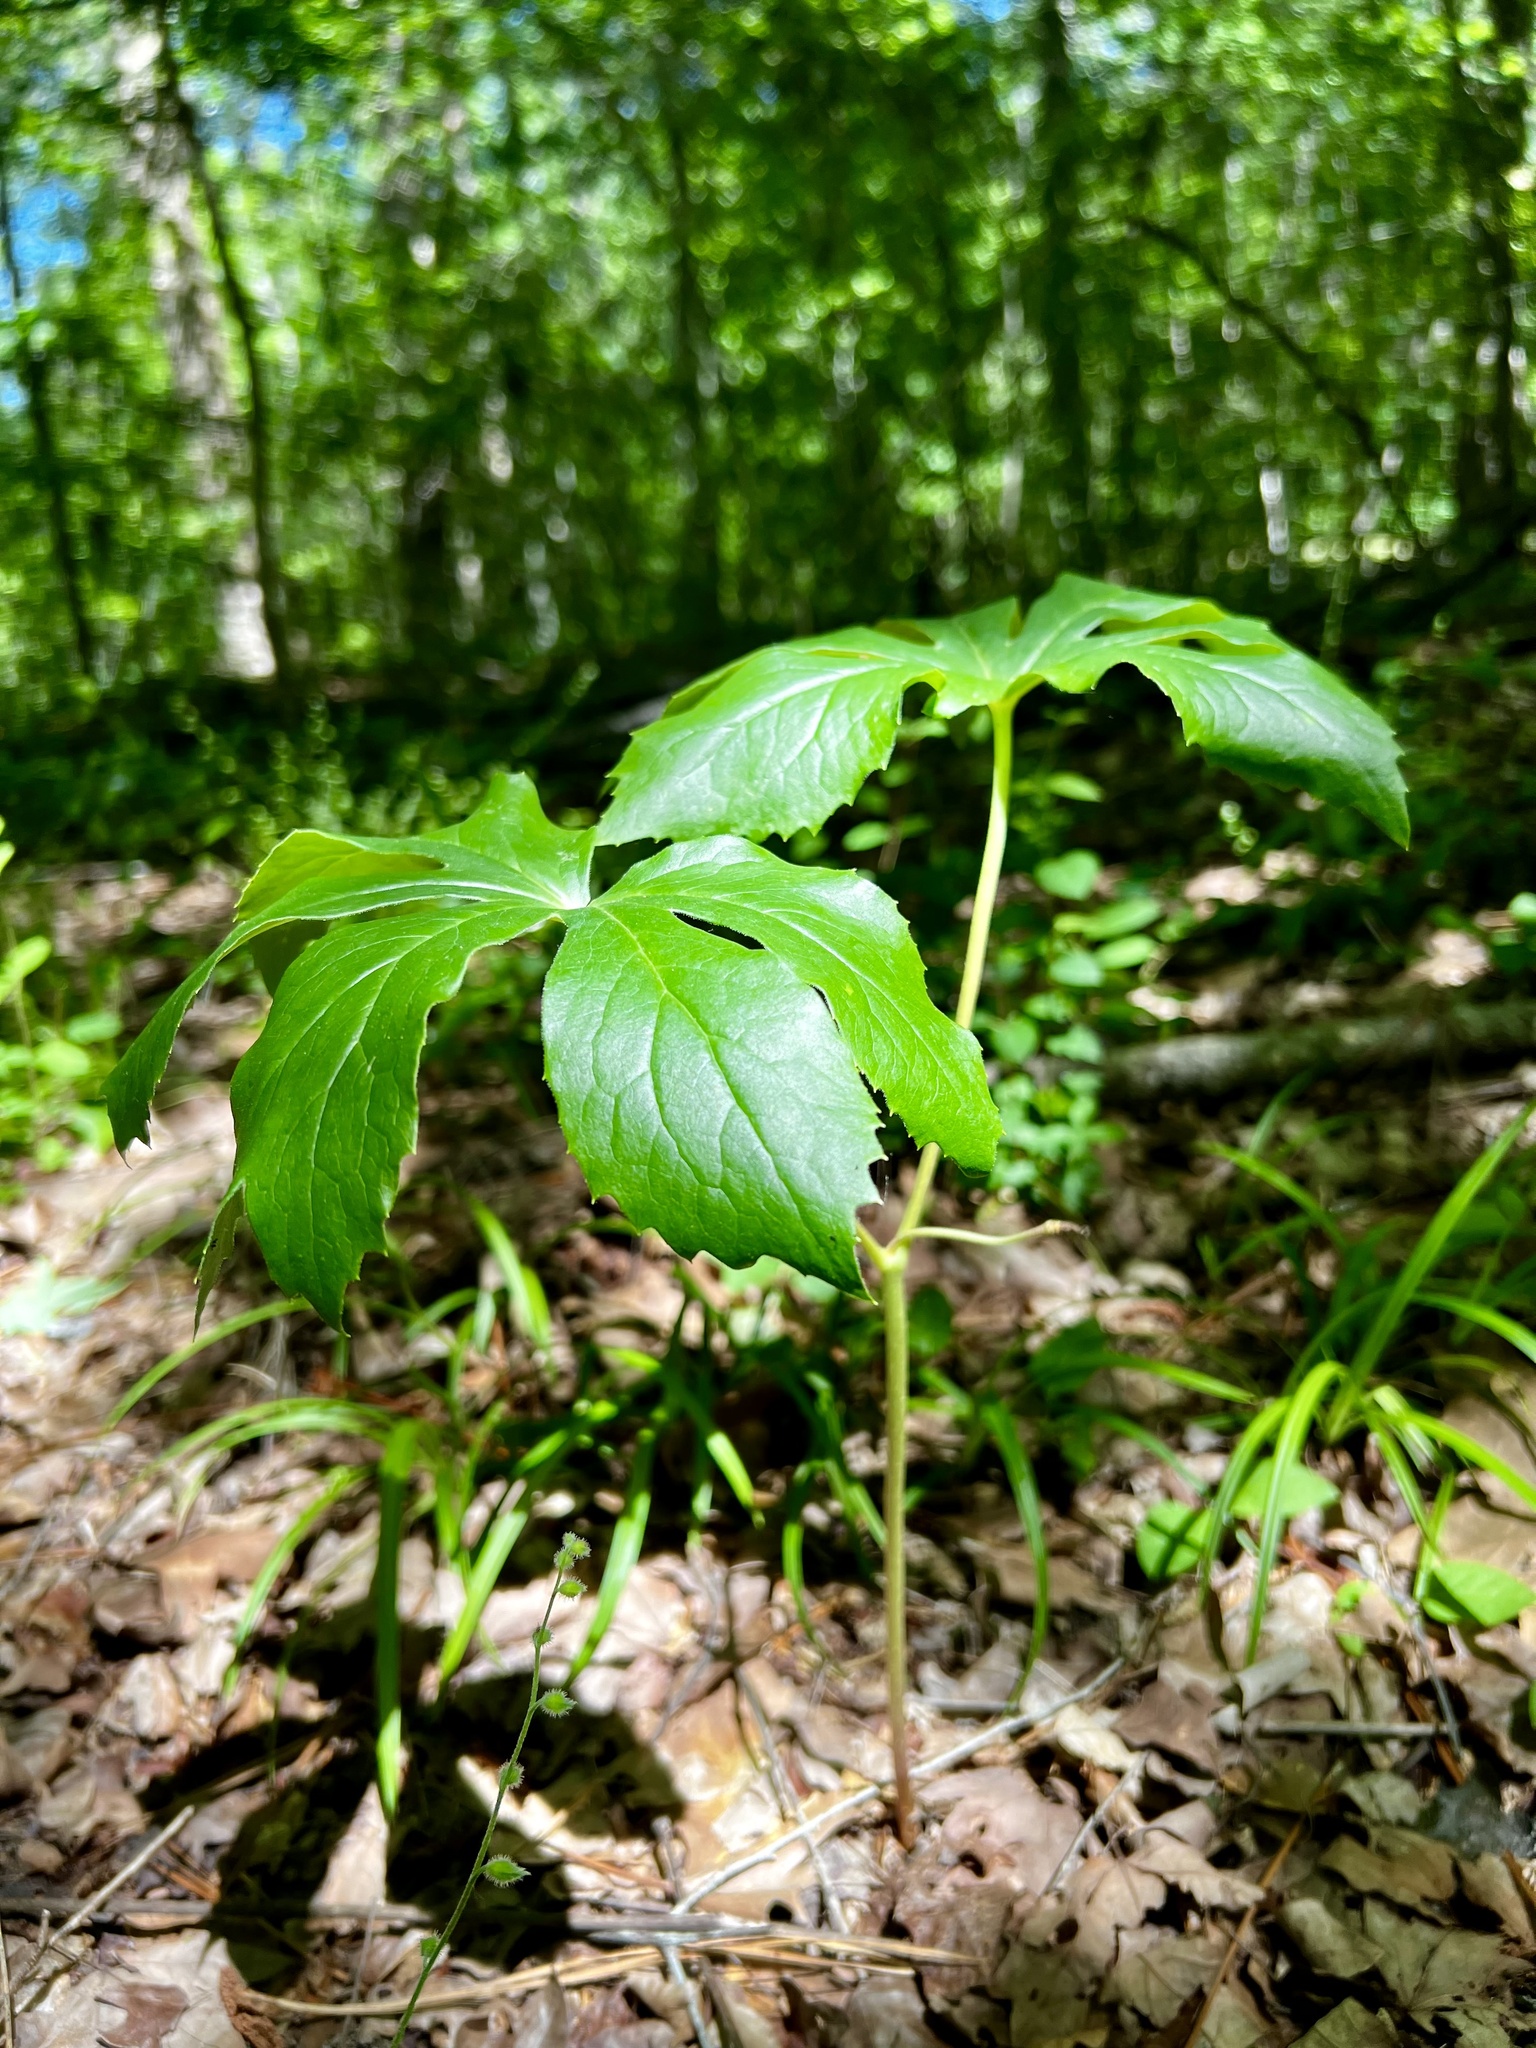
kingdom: Plantae
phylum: Tracheophyta
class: Magnoliopsida
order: Ranunculales
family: Berberidaceae
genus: Podophyllum
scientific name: Podophyllum peltatum
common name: Wild mandrake
